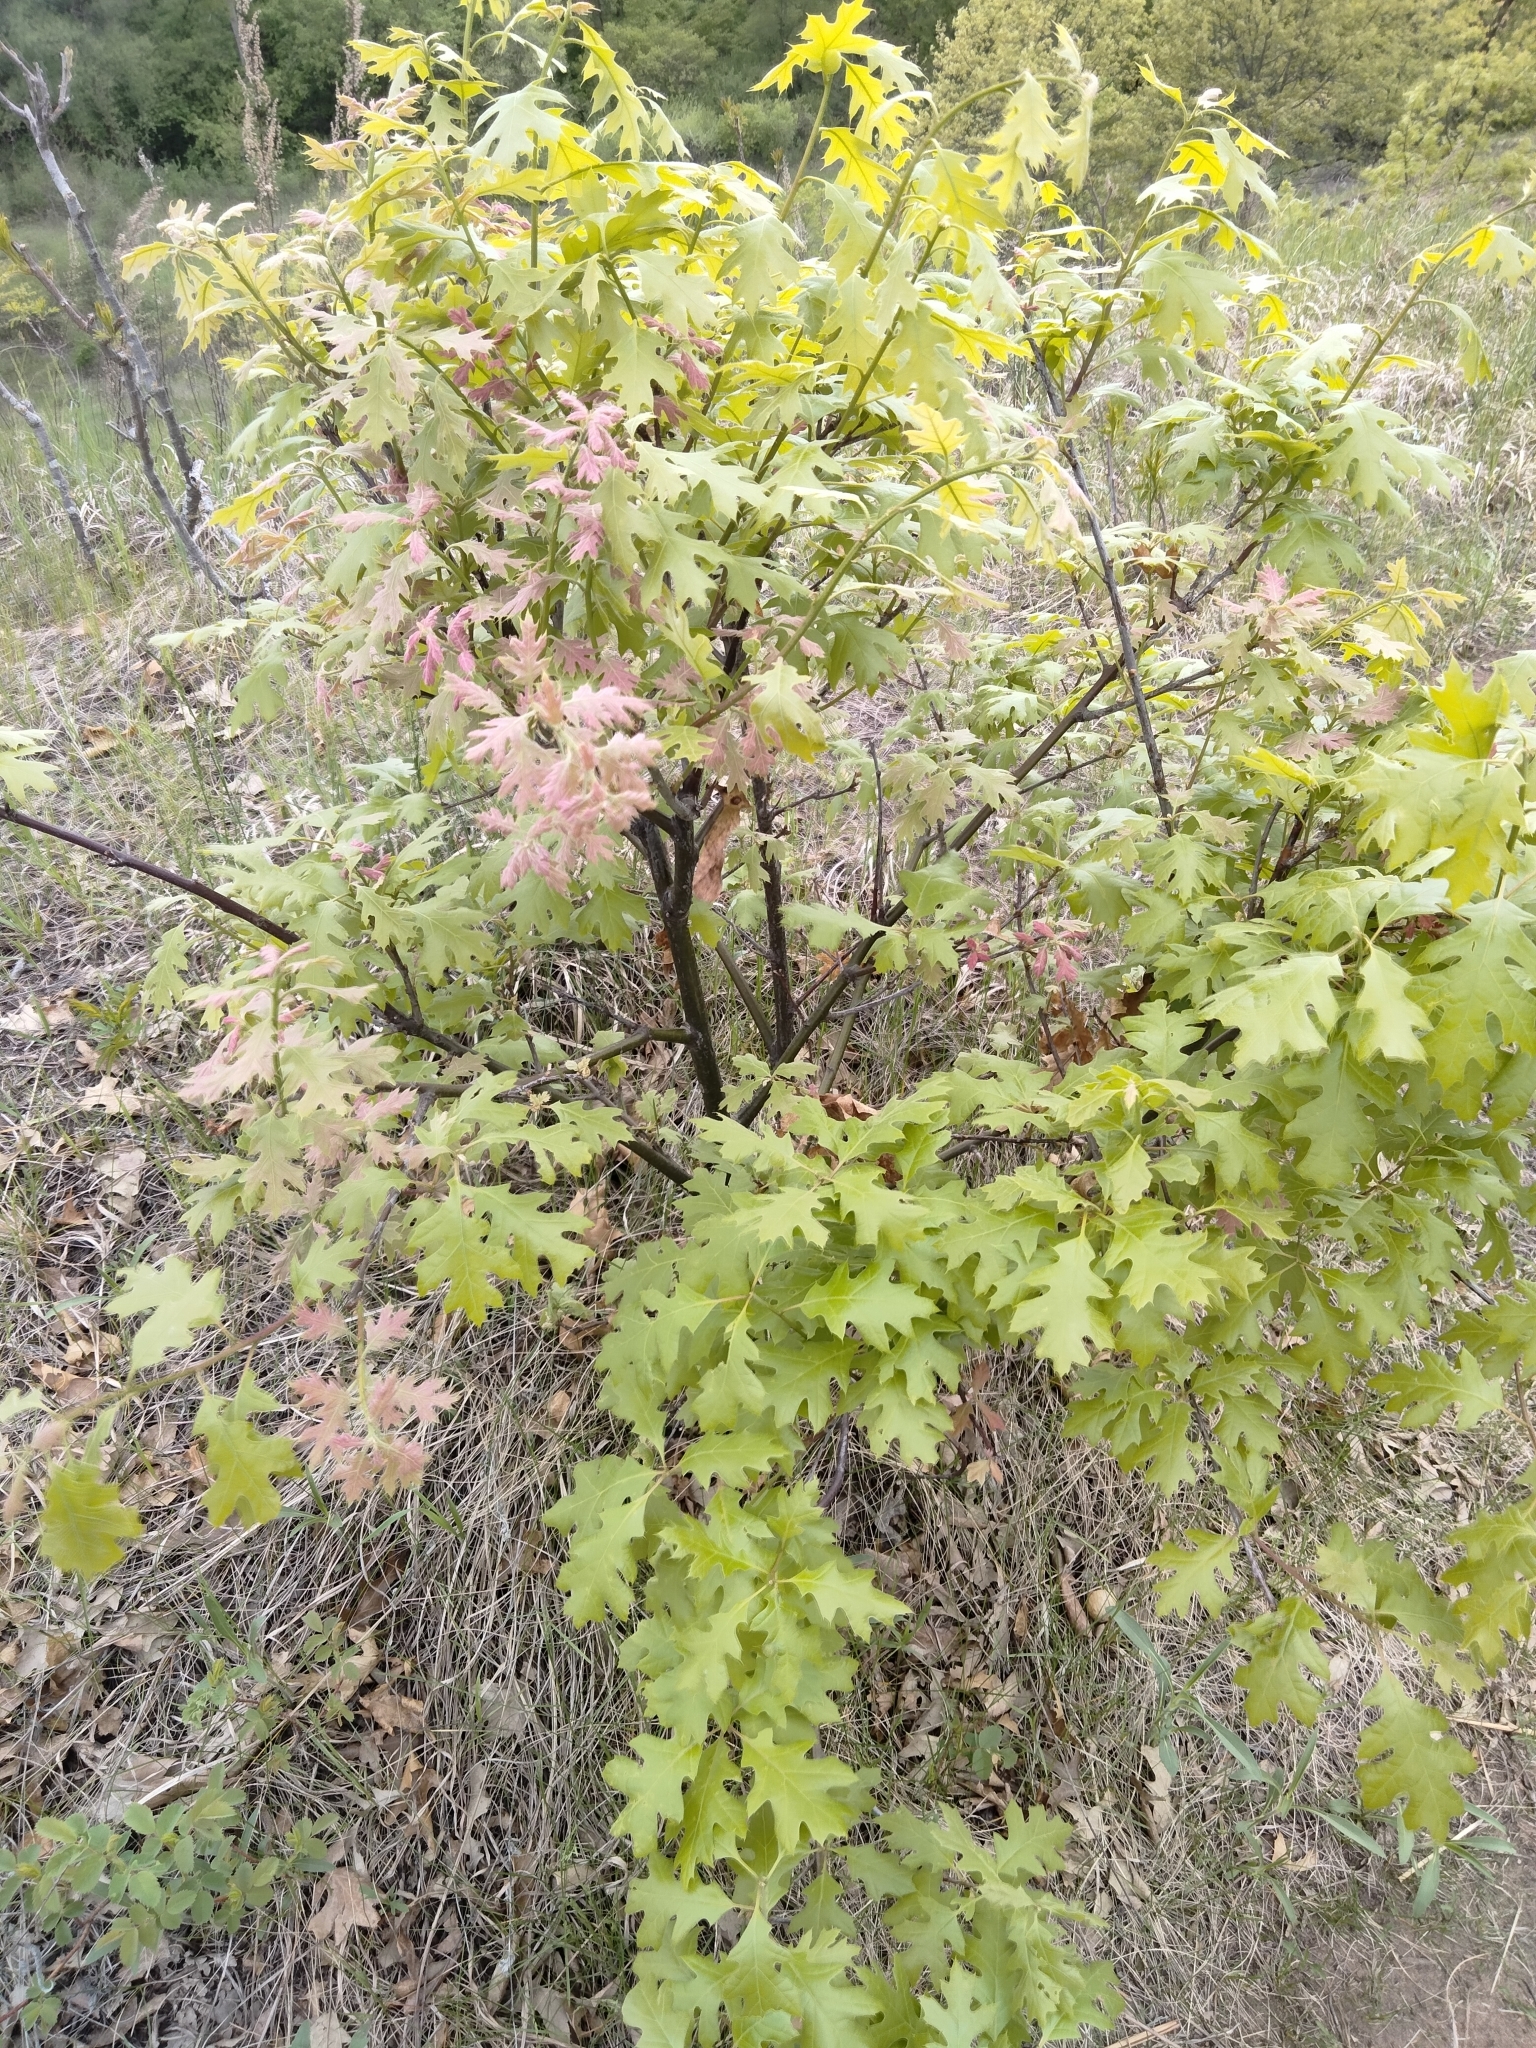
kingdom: Plantae
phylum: Tracheophyta
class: Magnoliopsida
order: Fagales
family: Fagaceae
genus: Quercus
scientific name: Quercus ellipsoidalis
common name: Hill's oak
